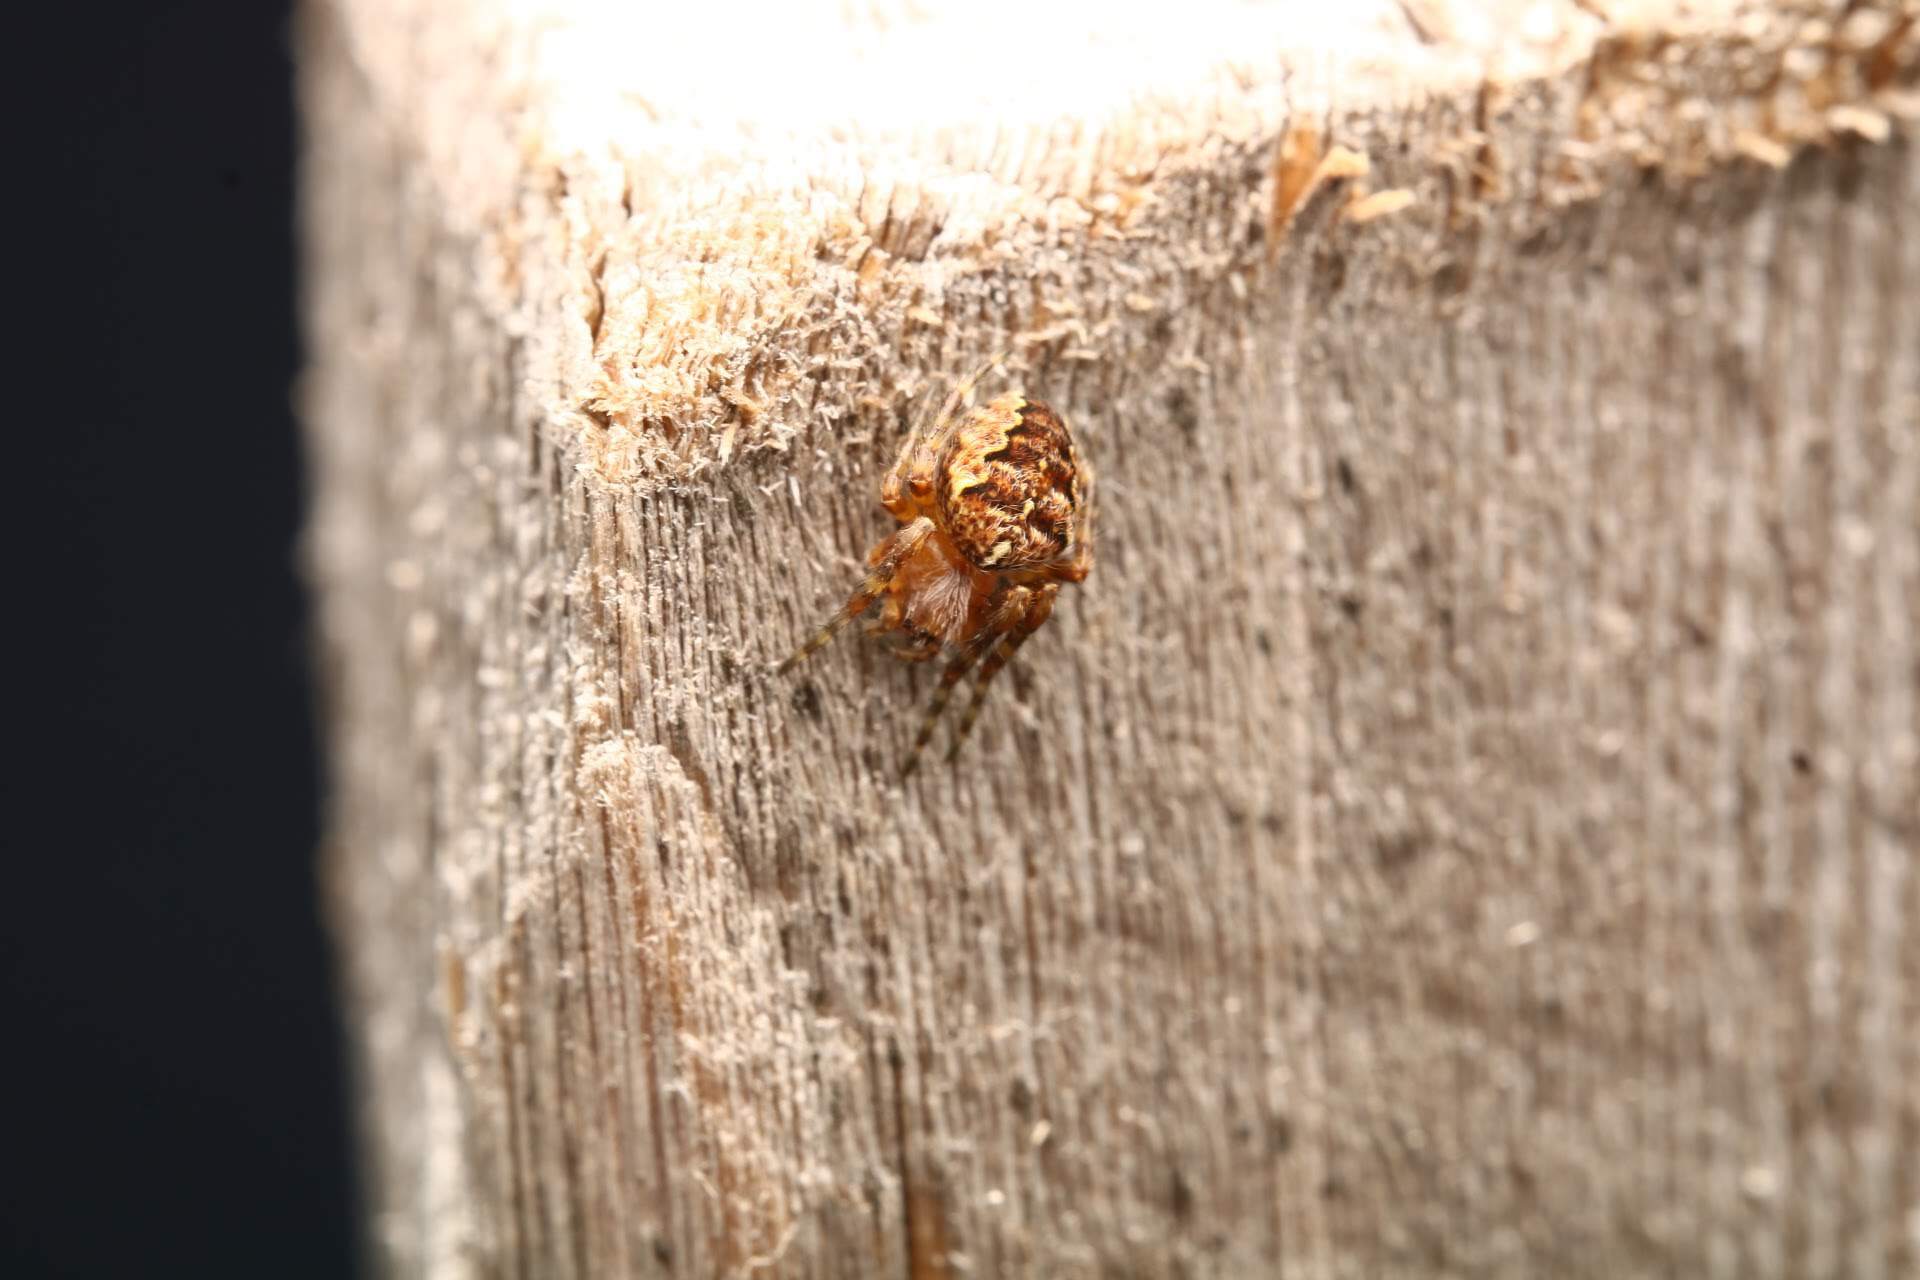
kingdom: Animalia
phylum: Arthropoda
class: Arachnida
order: Araneae
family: Araneidae
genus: Araneus
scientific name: Araneus diadematus
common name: Cross orbweaver
